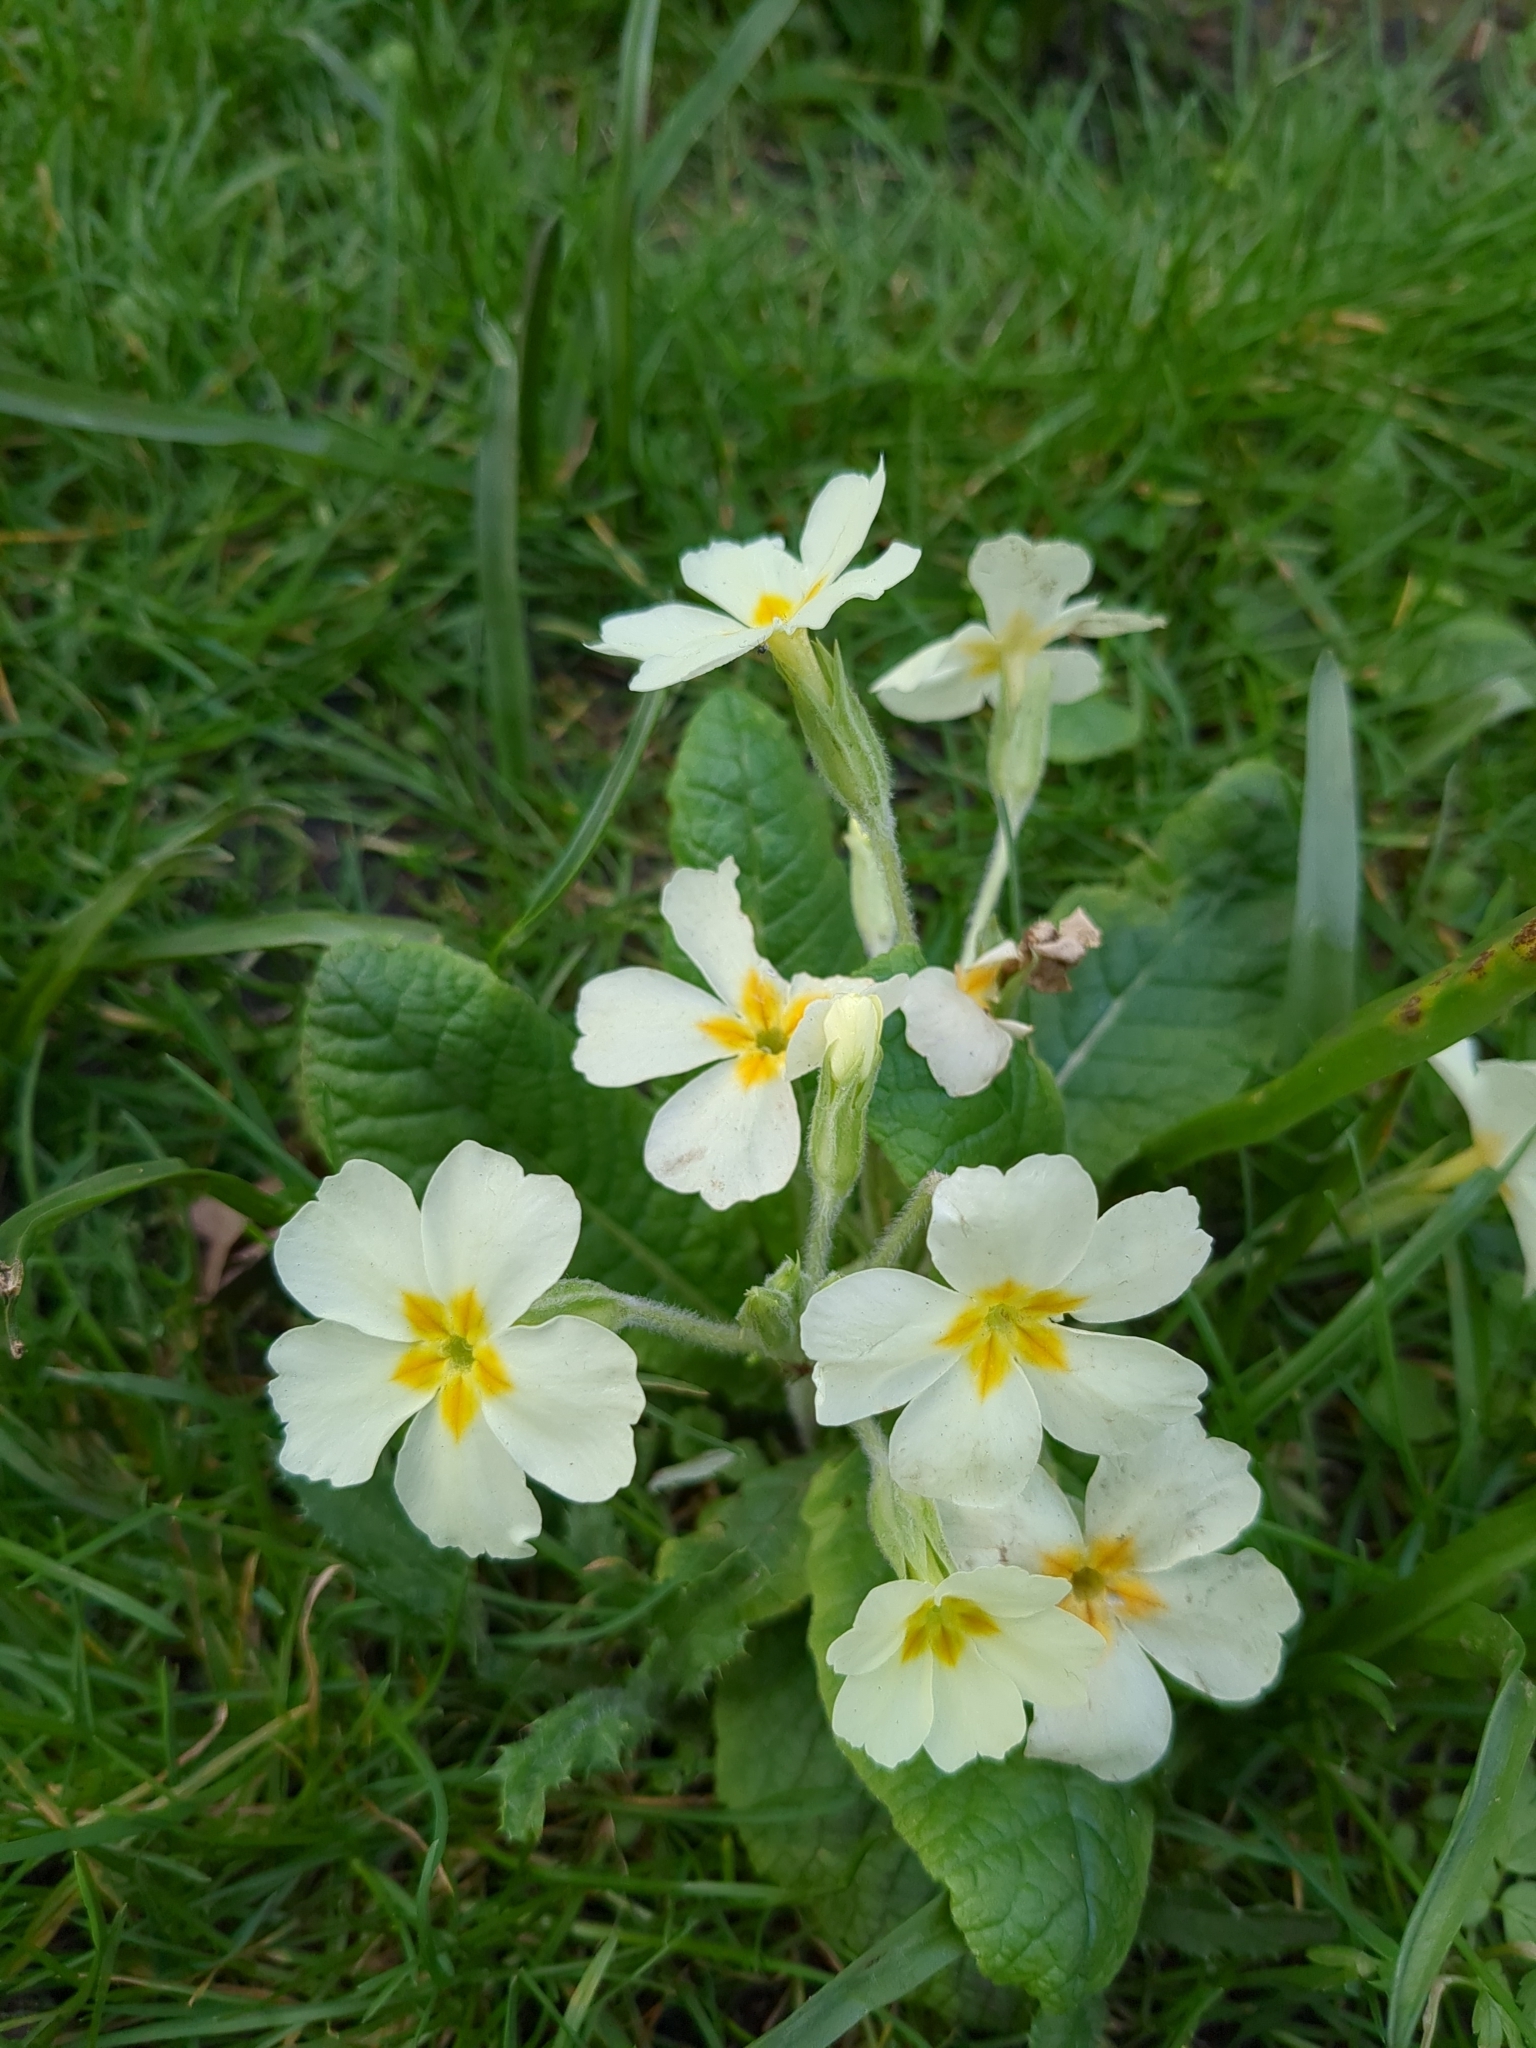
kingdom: Plantae
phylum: Tracheophyta
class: Magnoliopsida
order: Ericales
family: Primulaceae
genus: Primula
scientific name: Primula vulgaris
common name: Primrose
